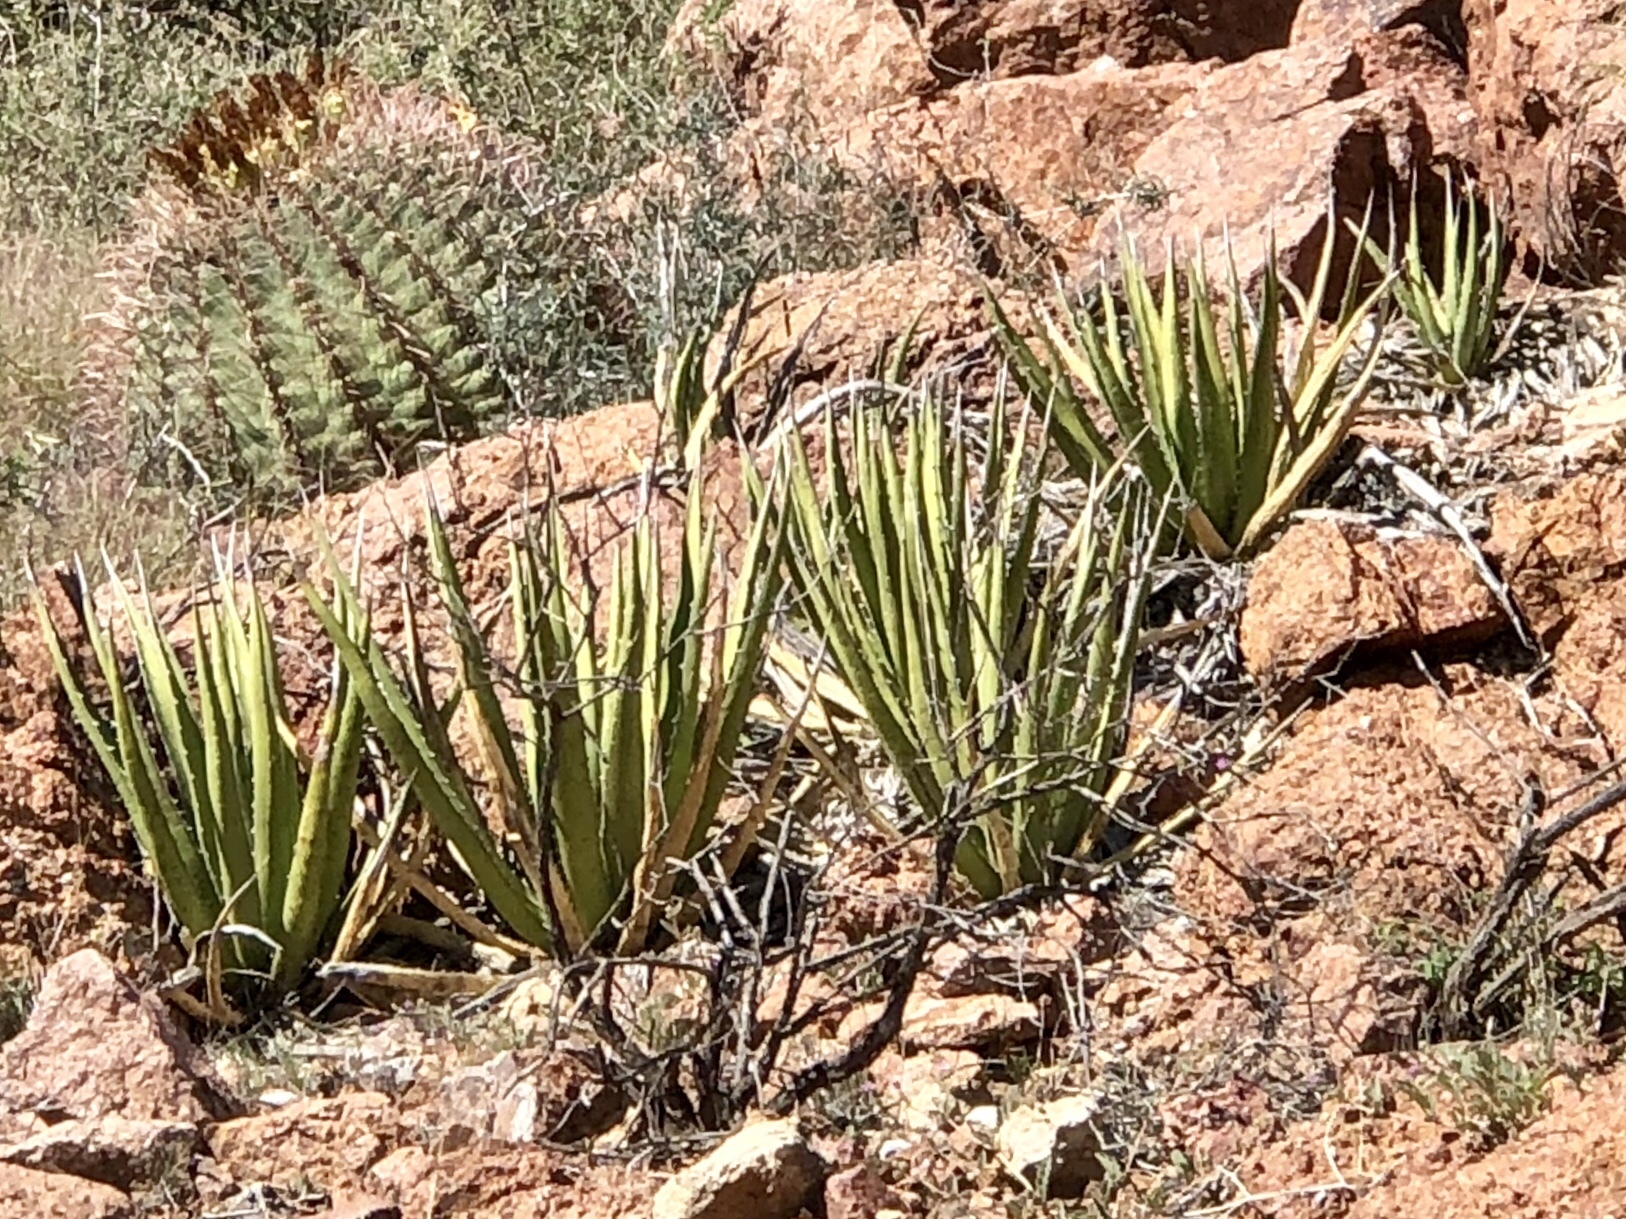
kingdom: Plantae
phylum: Tracheophyta
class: Liliopsida
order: Asparagales
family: Asparagaceae
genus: Agave
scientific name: Agave lechuguilla
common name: Lecheguilla agave
